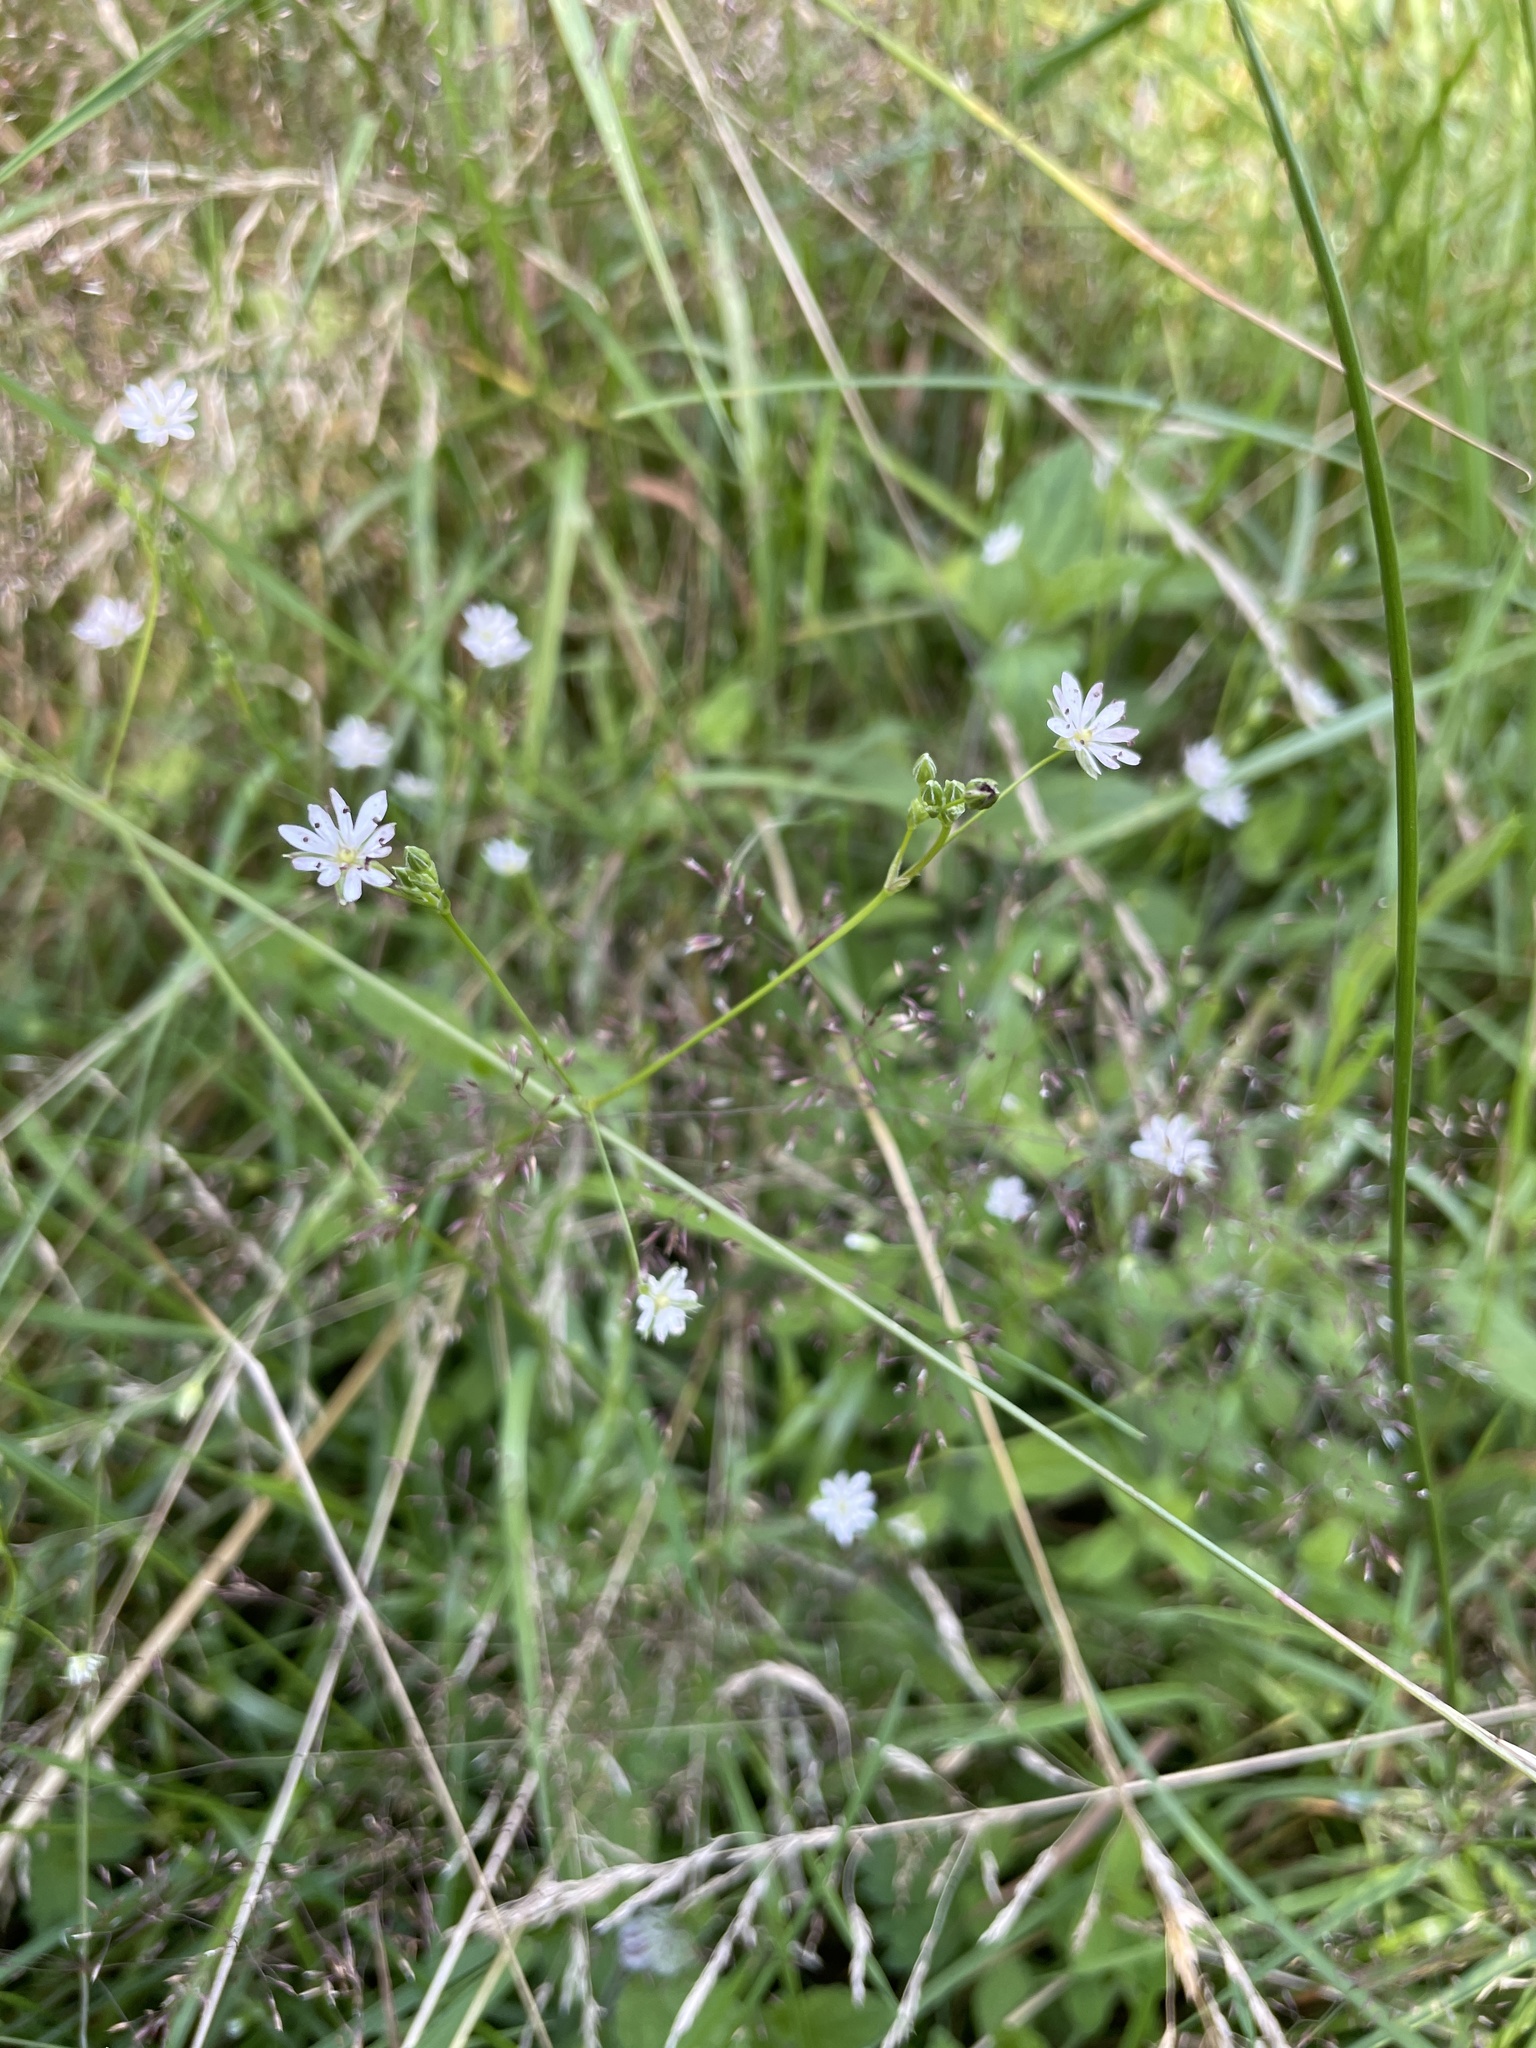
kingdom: Plantae
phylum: Tracheophyta
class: Magnoliopsida
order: Caryophyllales
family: Caryophyllaceae
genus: Stellaria
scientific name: Stellaria graminea
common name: Grass-like starwort
